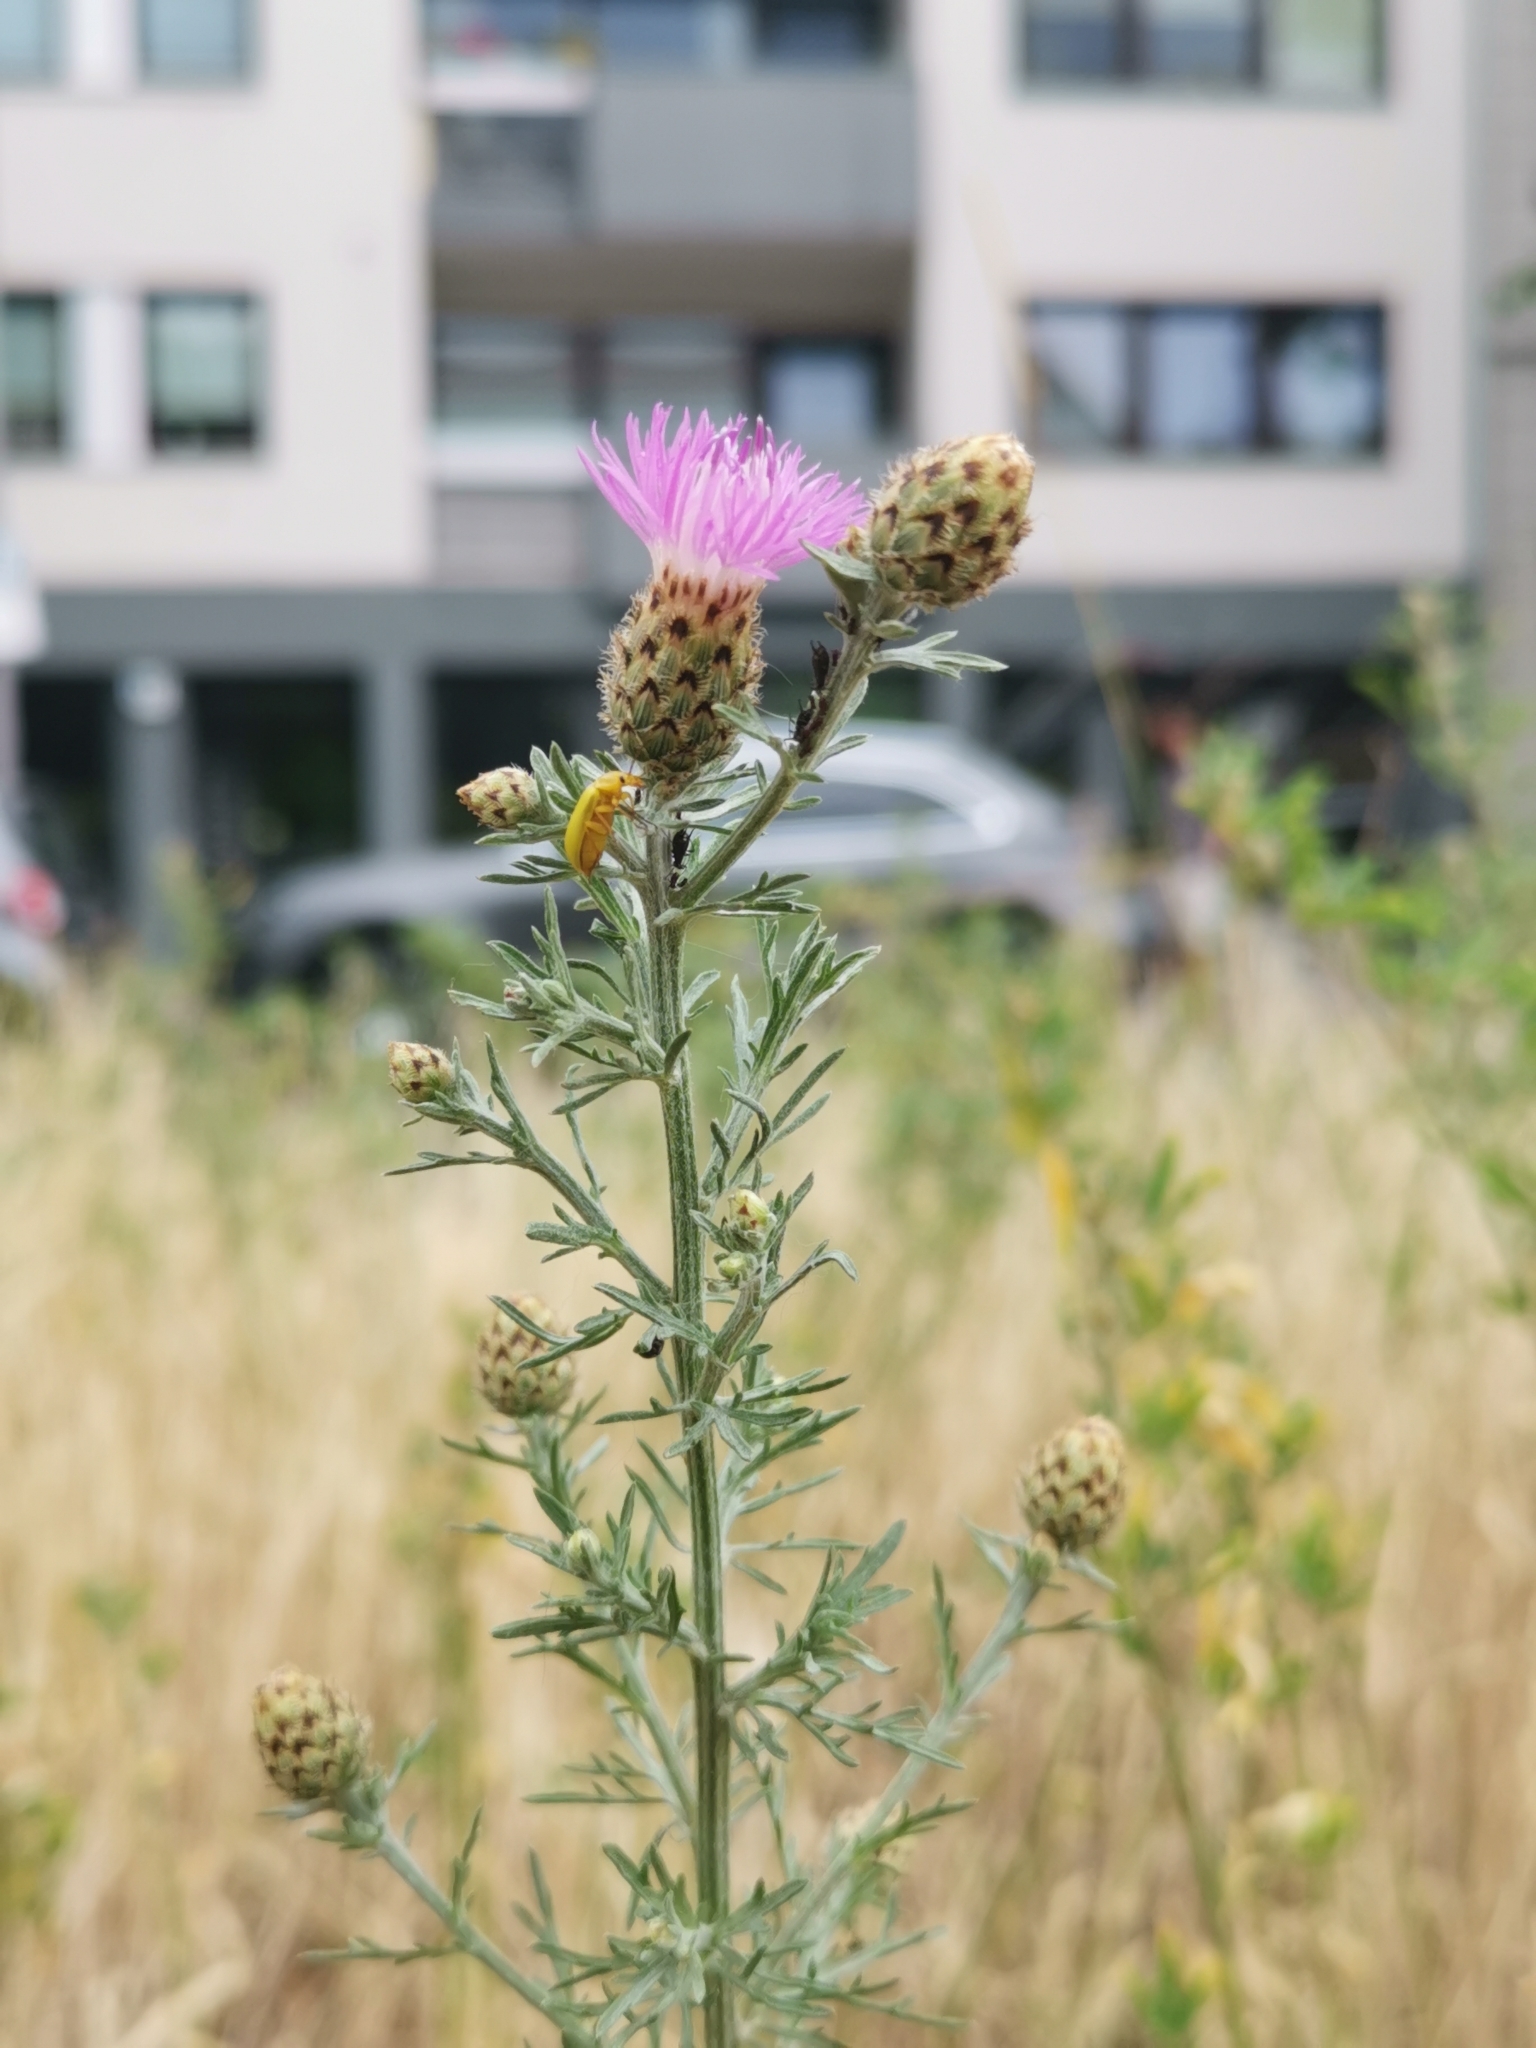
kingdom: Plantae
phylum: Tracheophyta
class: Magnoliopsida
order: Asterales
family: Asteraceae
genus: Centaurea
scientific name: Centaurea stoebe
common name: Spotted knapweed
